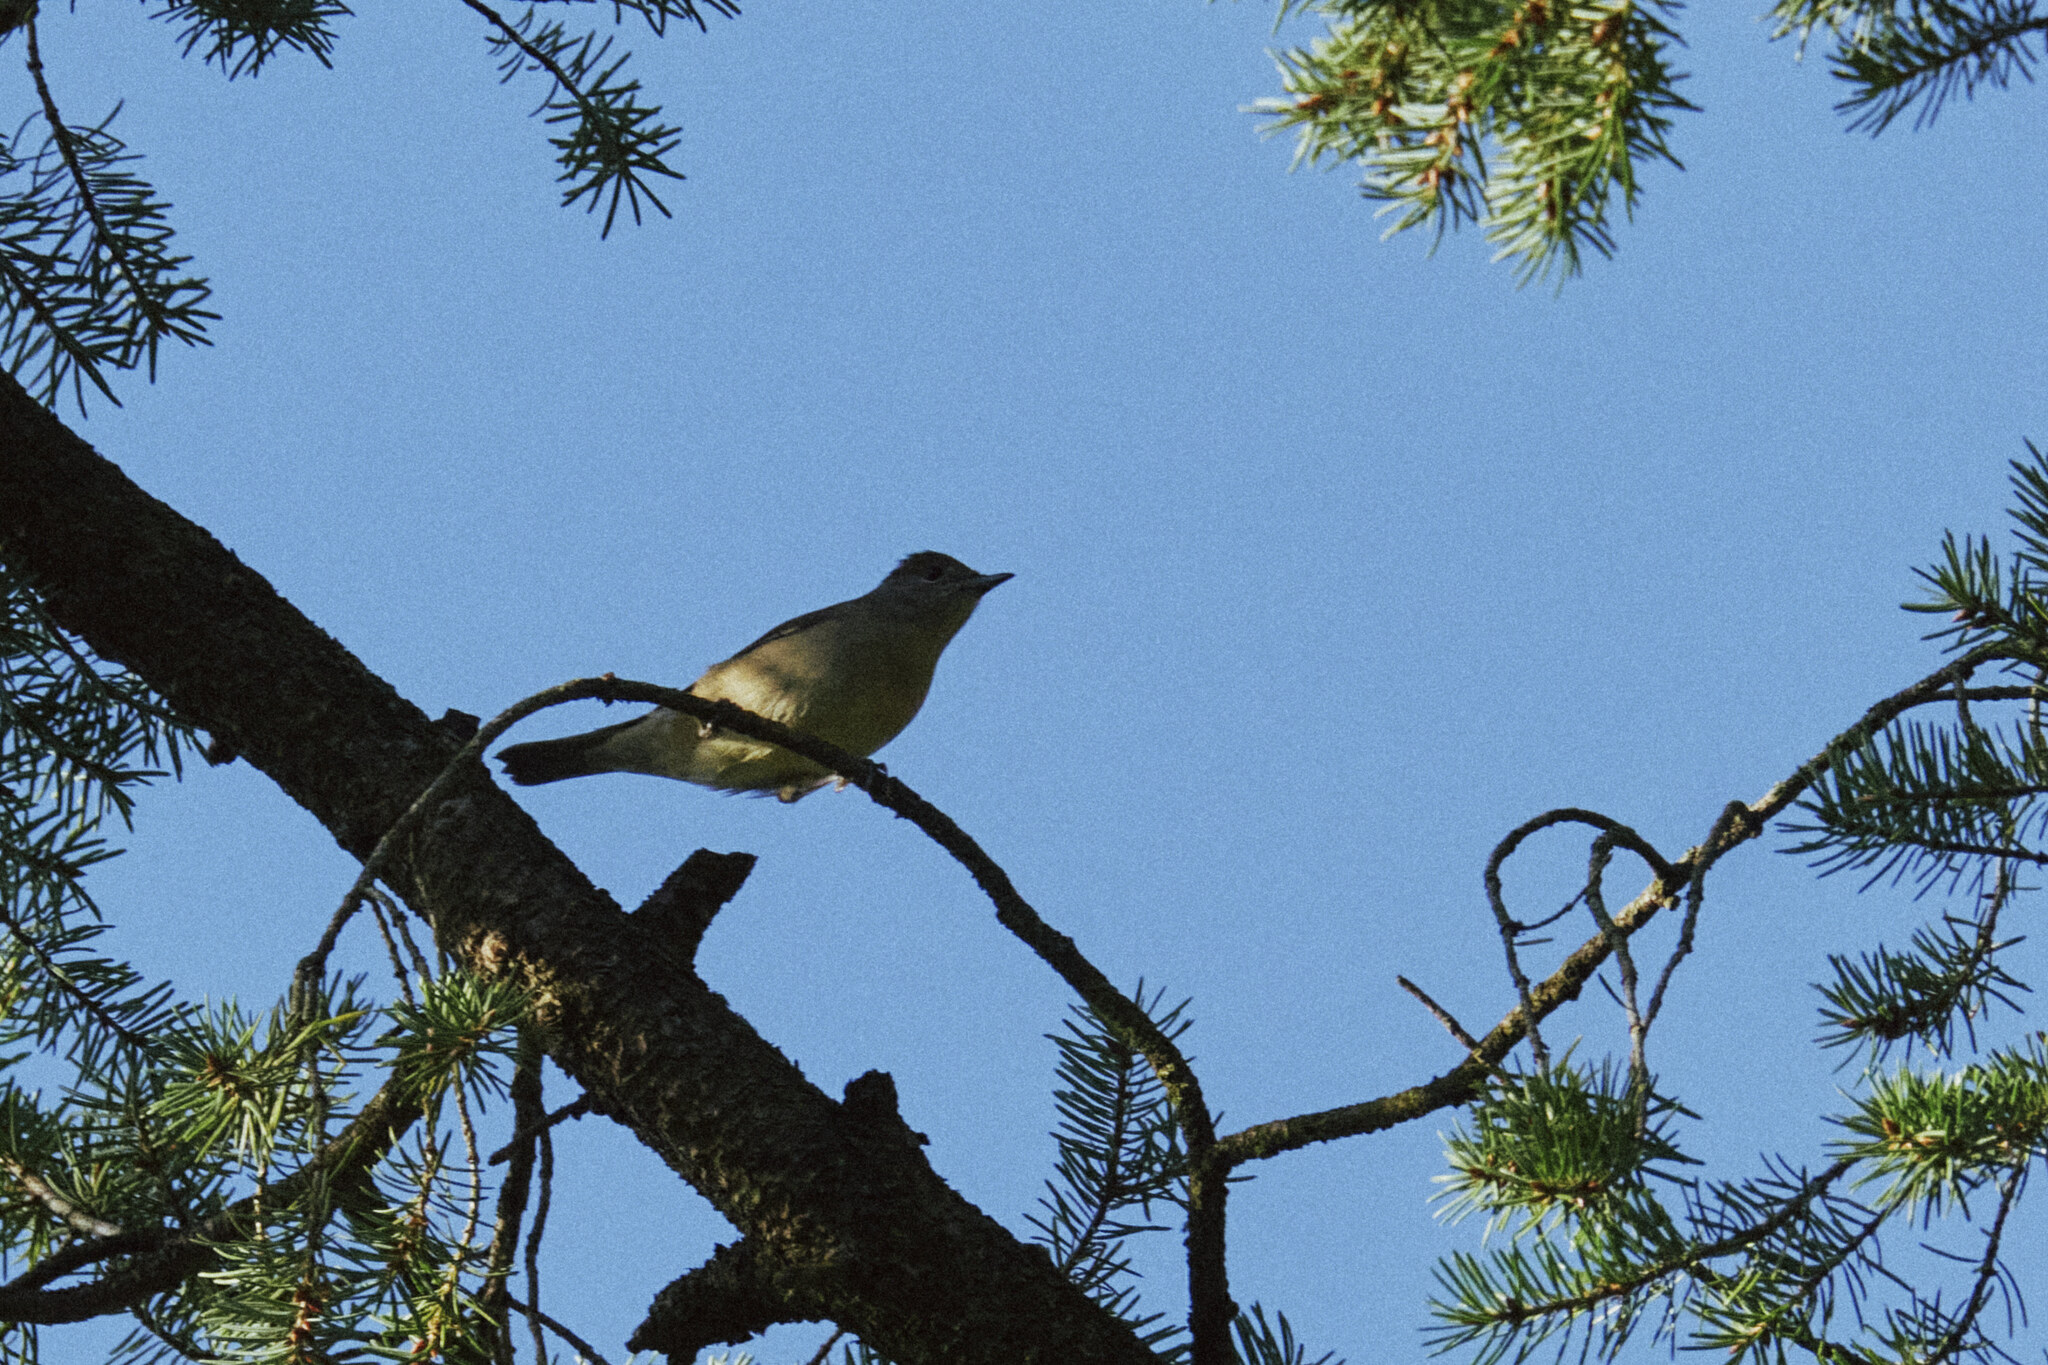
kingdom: Animalia
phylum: Chordata
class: Aves
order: Passeriformes
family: Sylviidae
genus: Sylvia
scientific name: Sylvia atricapilla
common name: Eurasian blackcap
